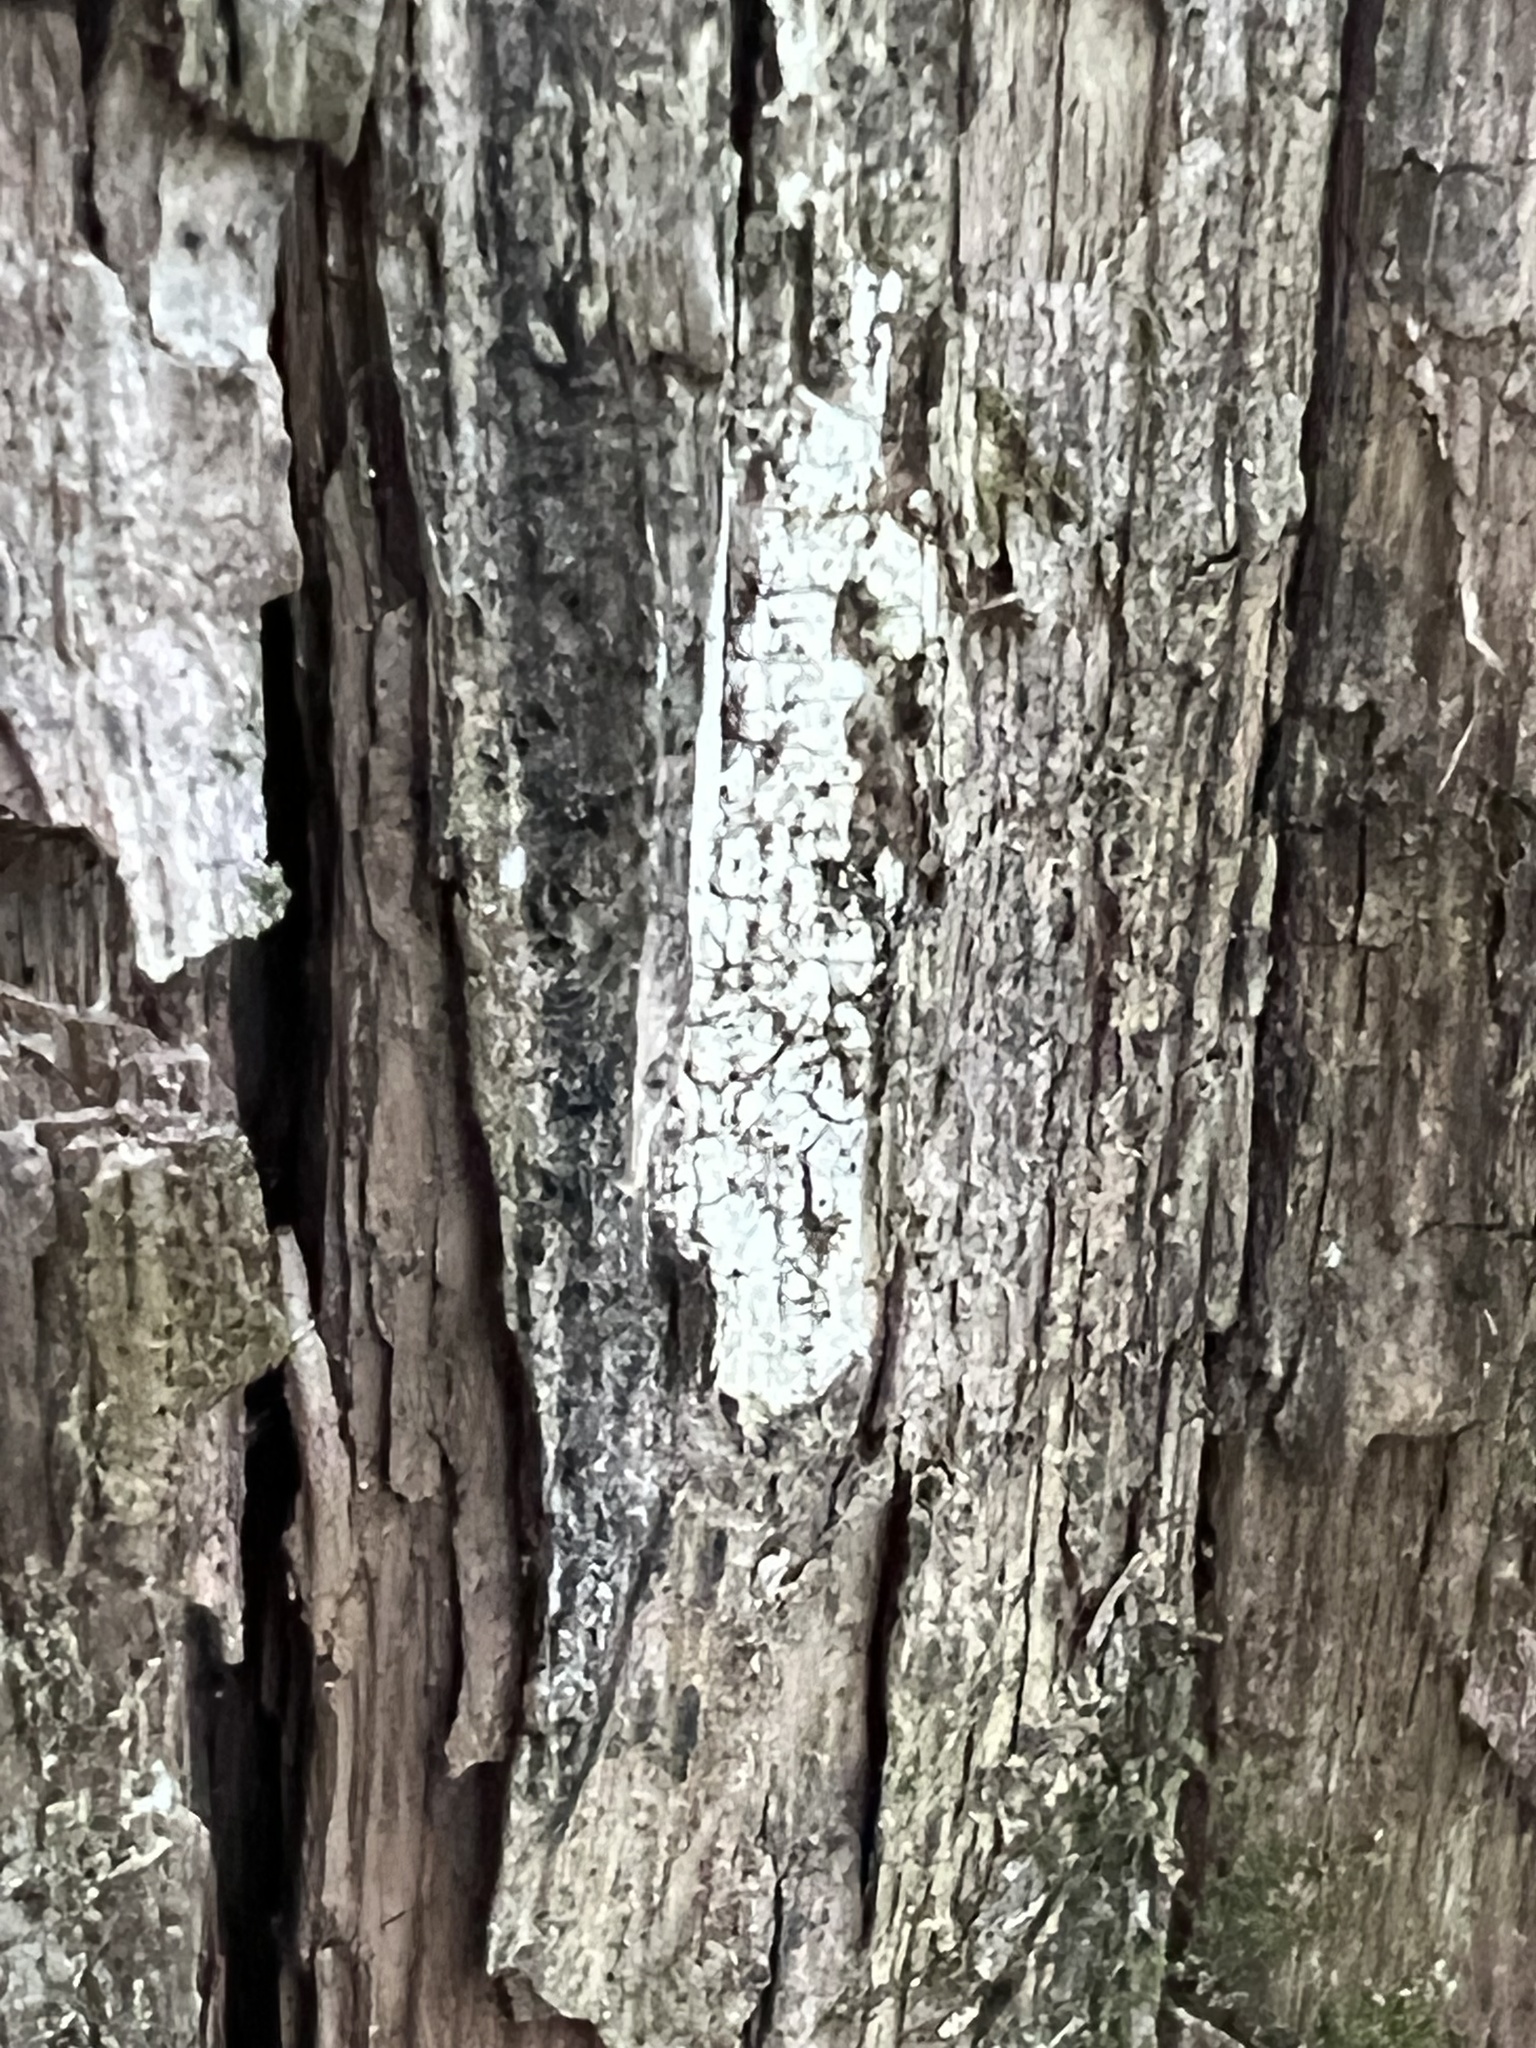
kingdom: Fungi
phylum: Basidiomycota
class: Agaricomycetes
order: Agaricales
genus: Dendrothele
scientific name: Dendrothele nivosa
